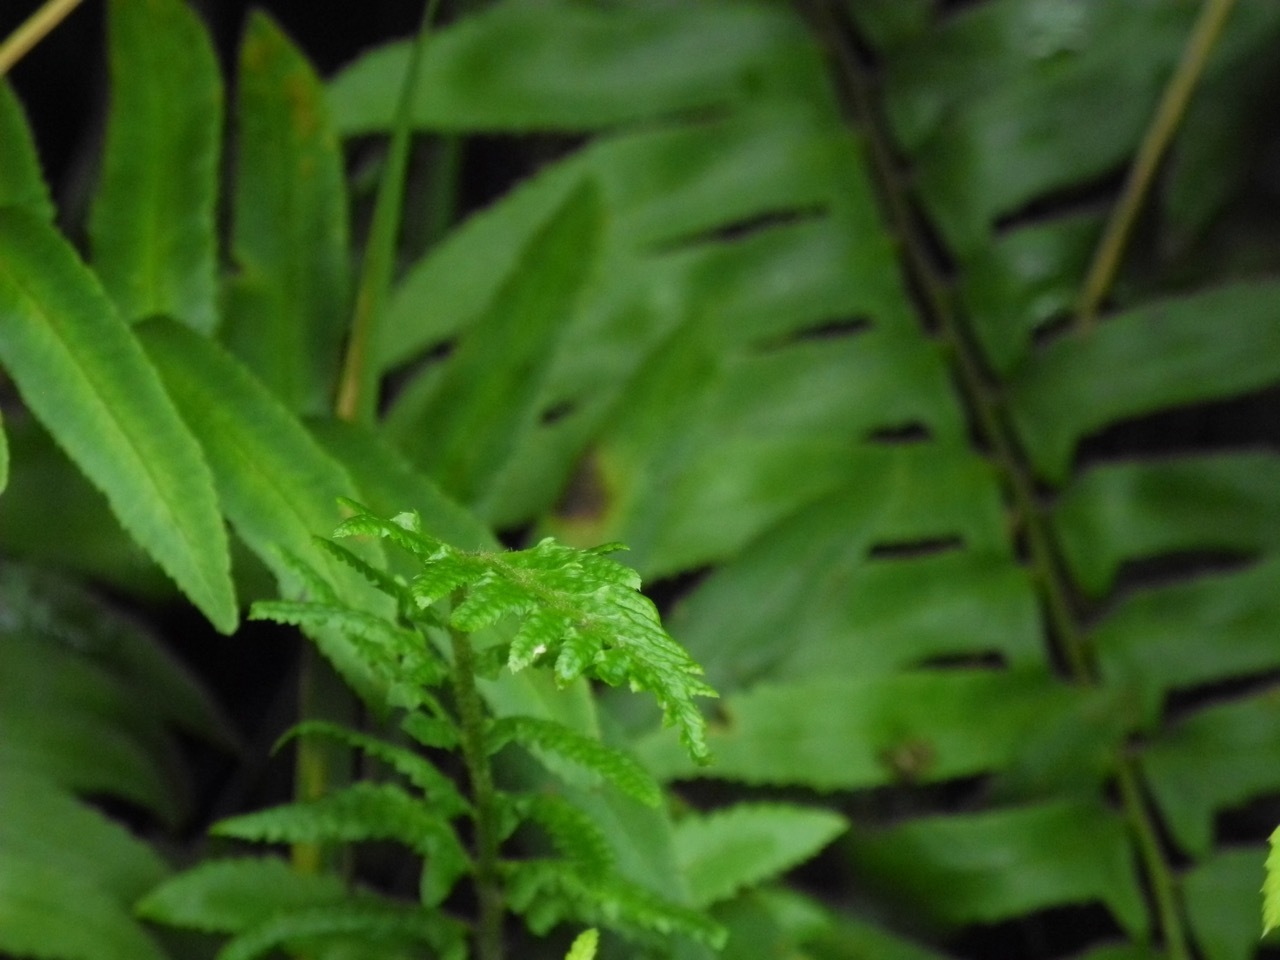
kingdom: Plantae
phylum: Tracheophyta
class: Polypodiopsida
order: Polypodiales
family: Dryopteridaceae
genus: Polystichum
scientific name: Polystichum acrostichoides
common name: Christmas fern
